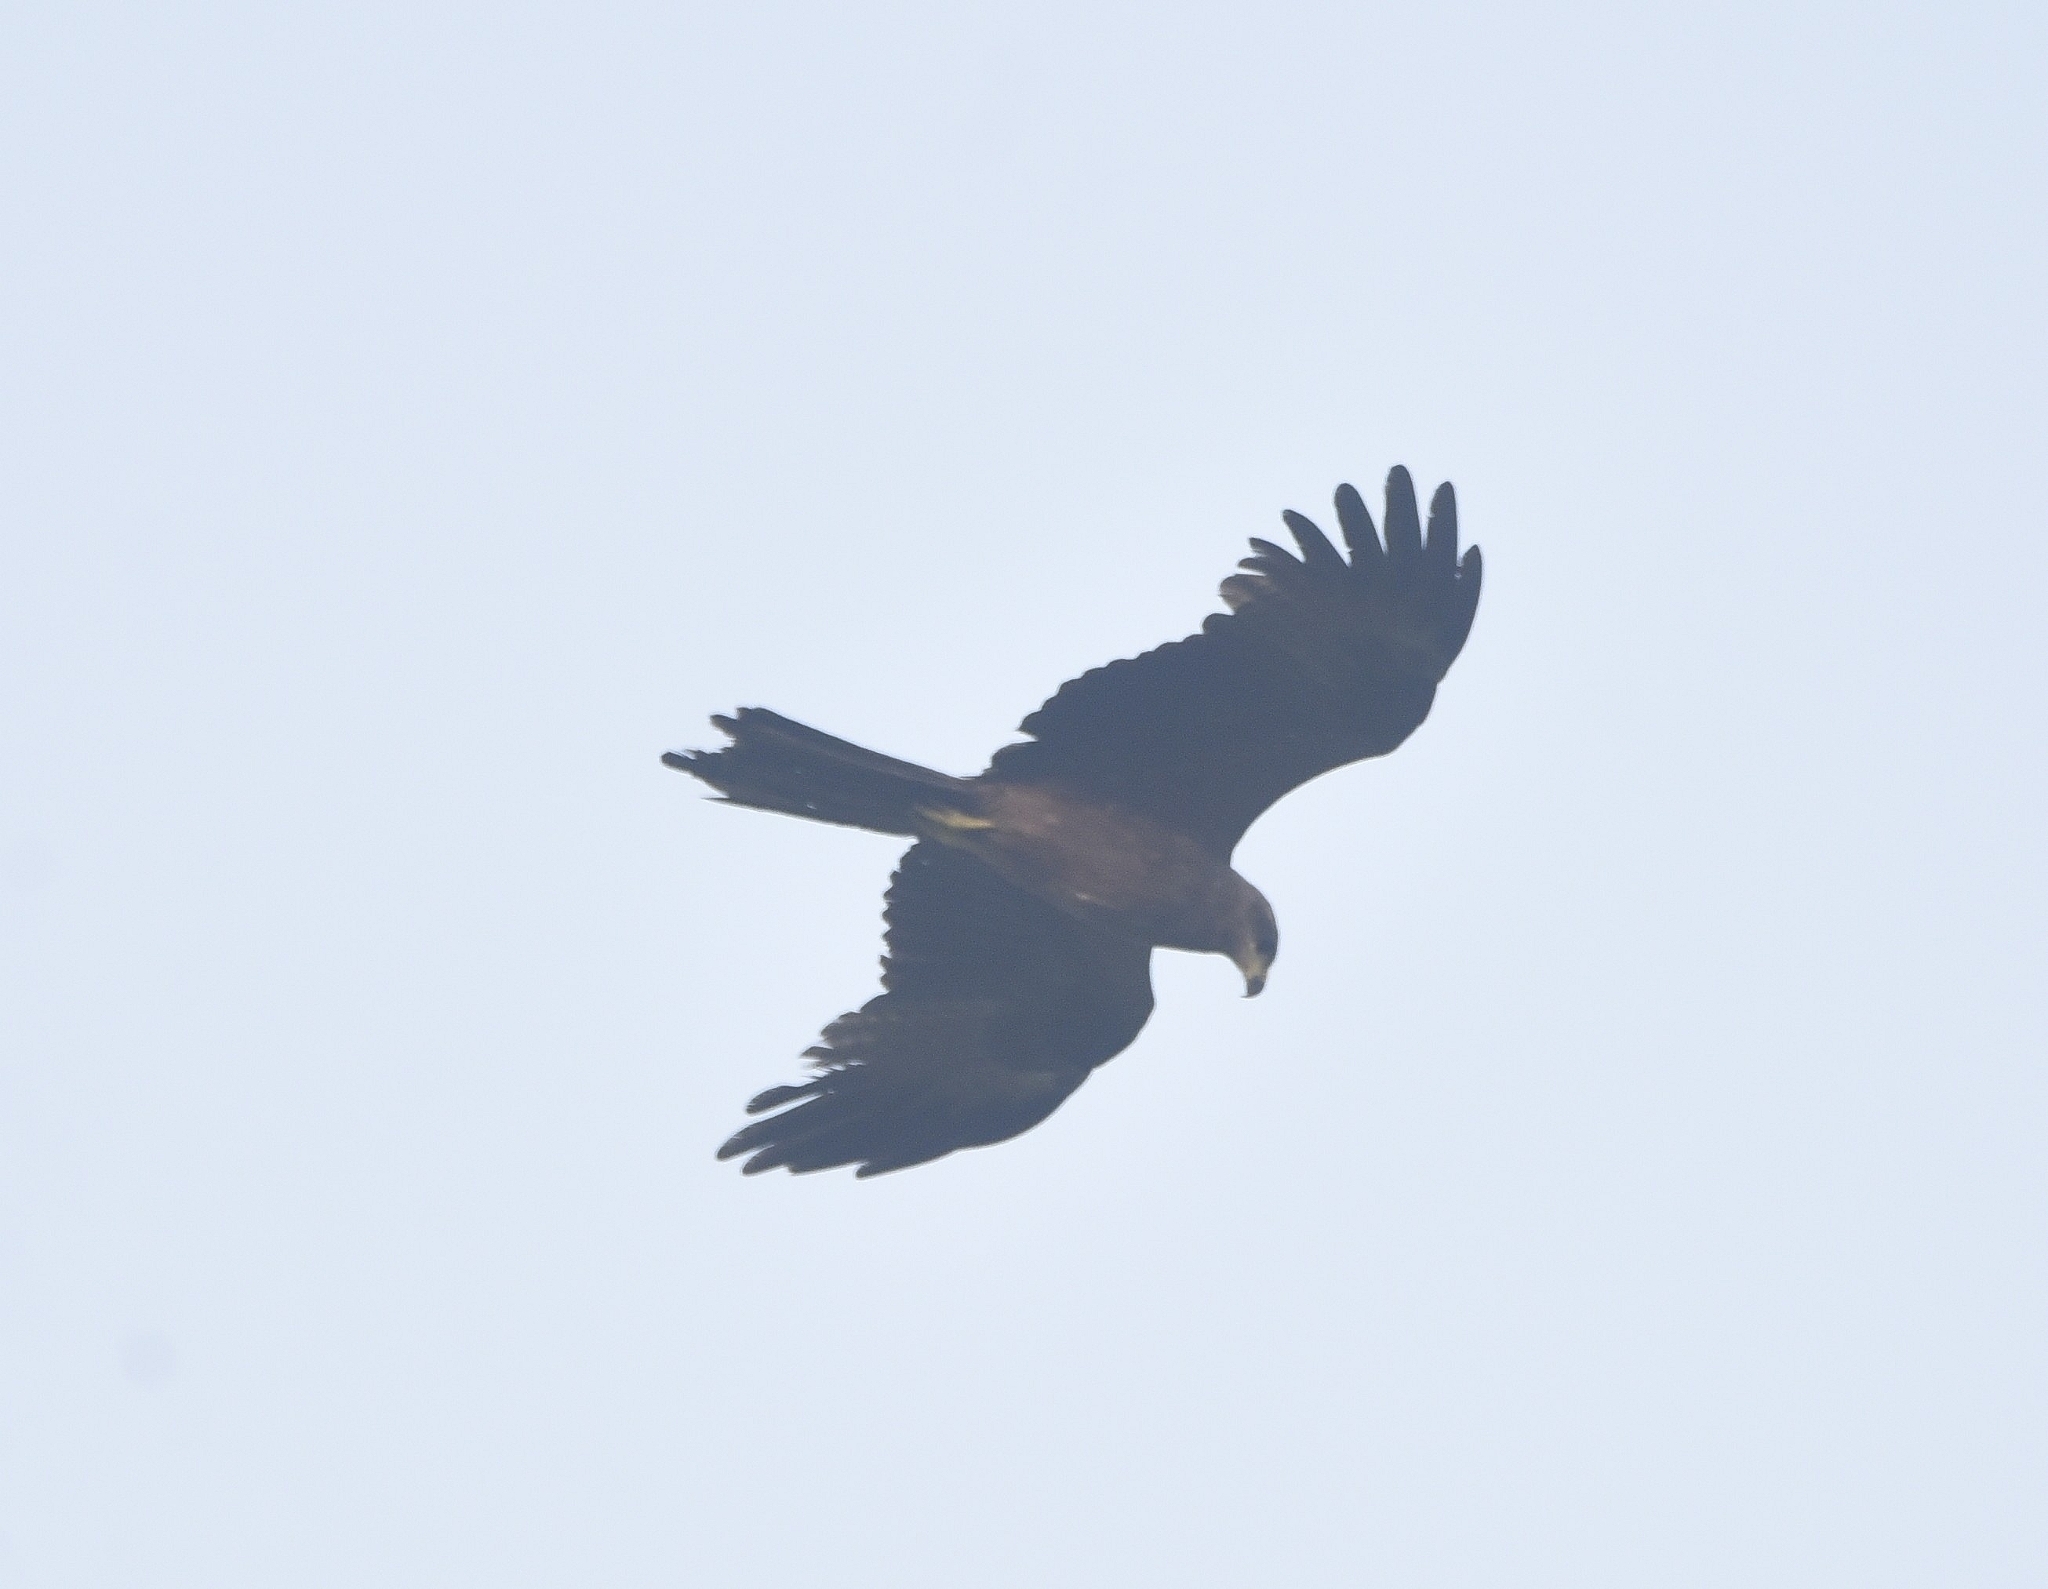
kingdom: Animalia
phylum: Chordata
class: Aves
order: Accipitriformes
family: Accipitridae
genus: Milvus
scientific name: Milvus migrans
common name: Black kite
